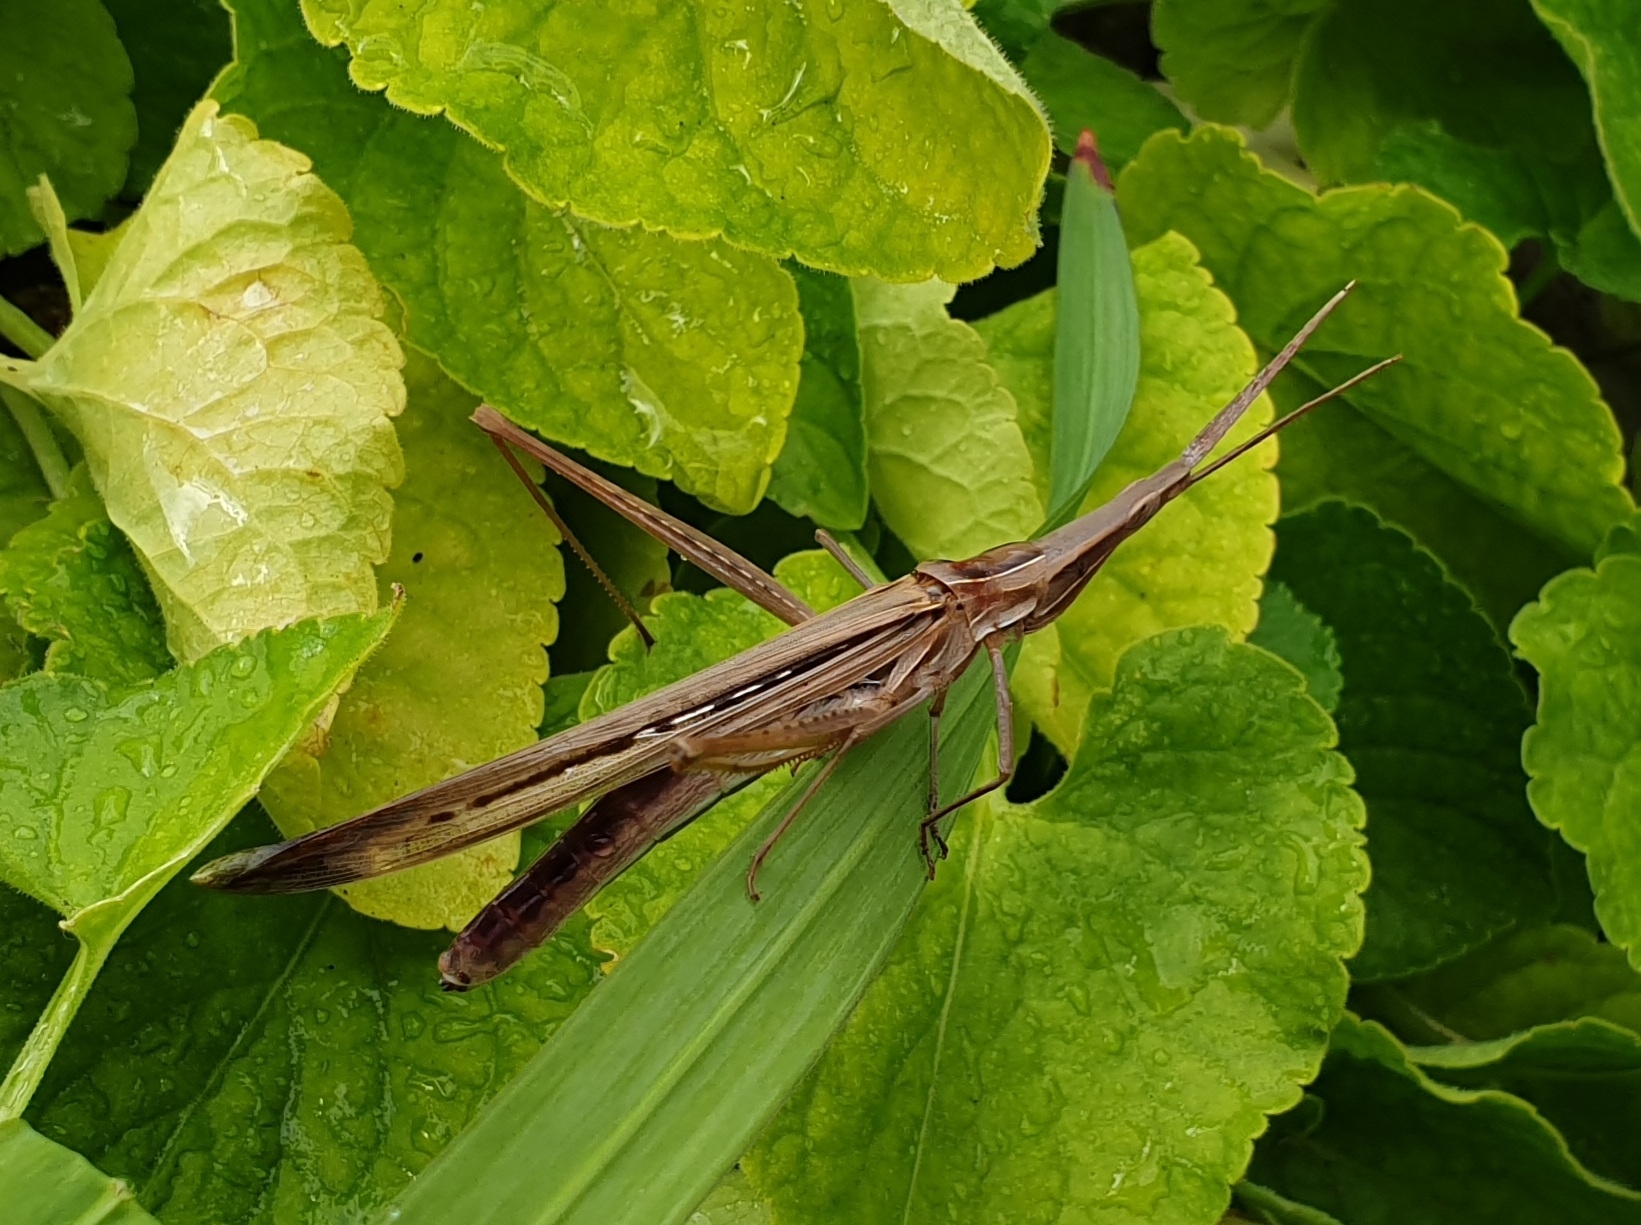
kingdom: Animalia
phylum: Arthropoda
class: Insecta
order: Orthoptera
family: Acrididae
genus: Acrida
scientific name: Acrida conica
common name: Giant green slantface
